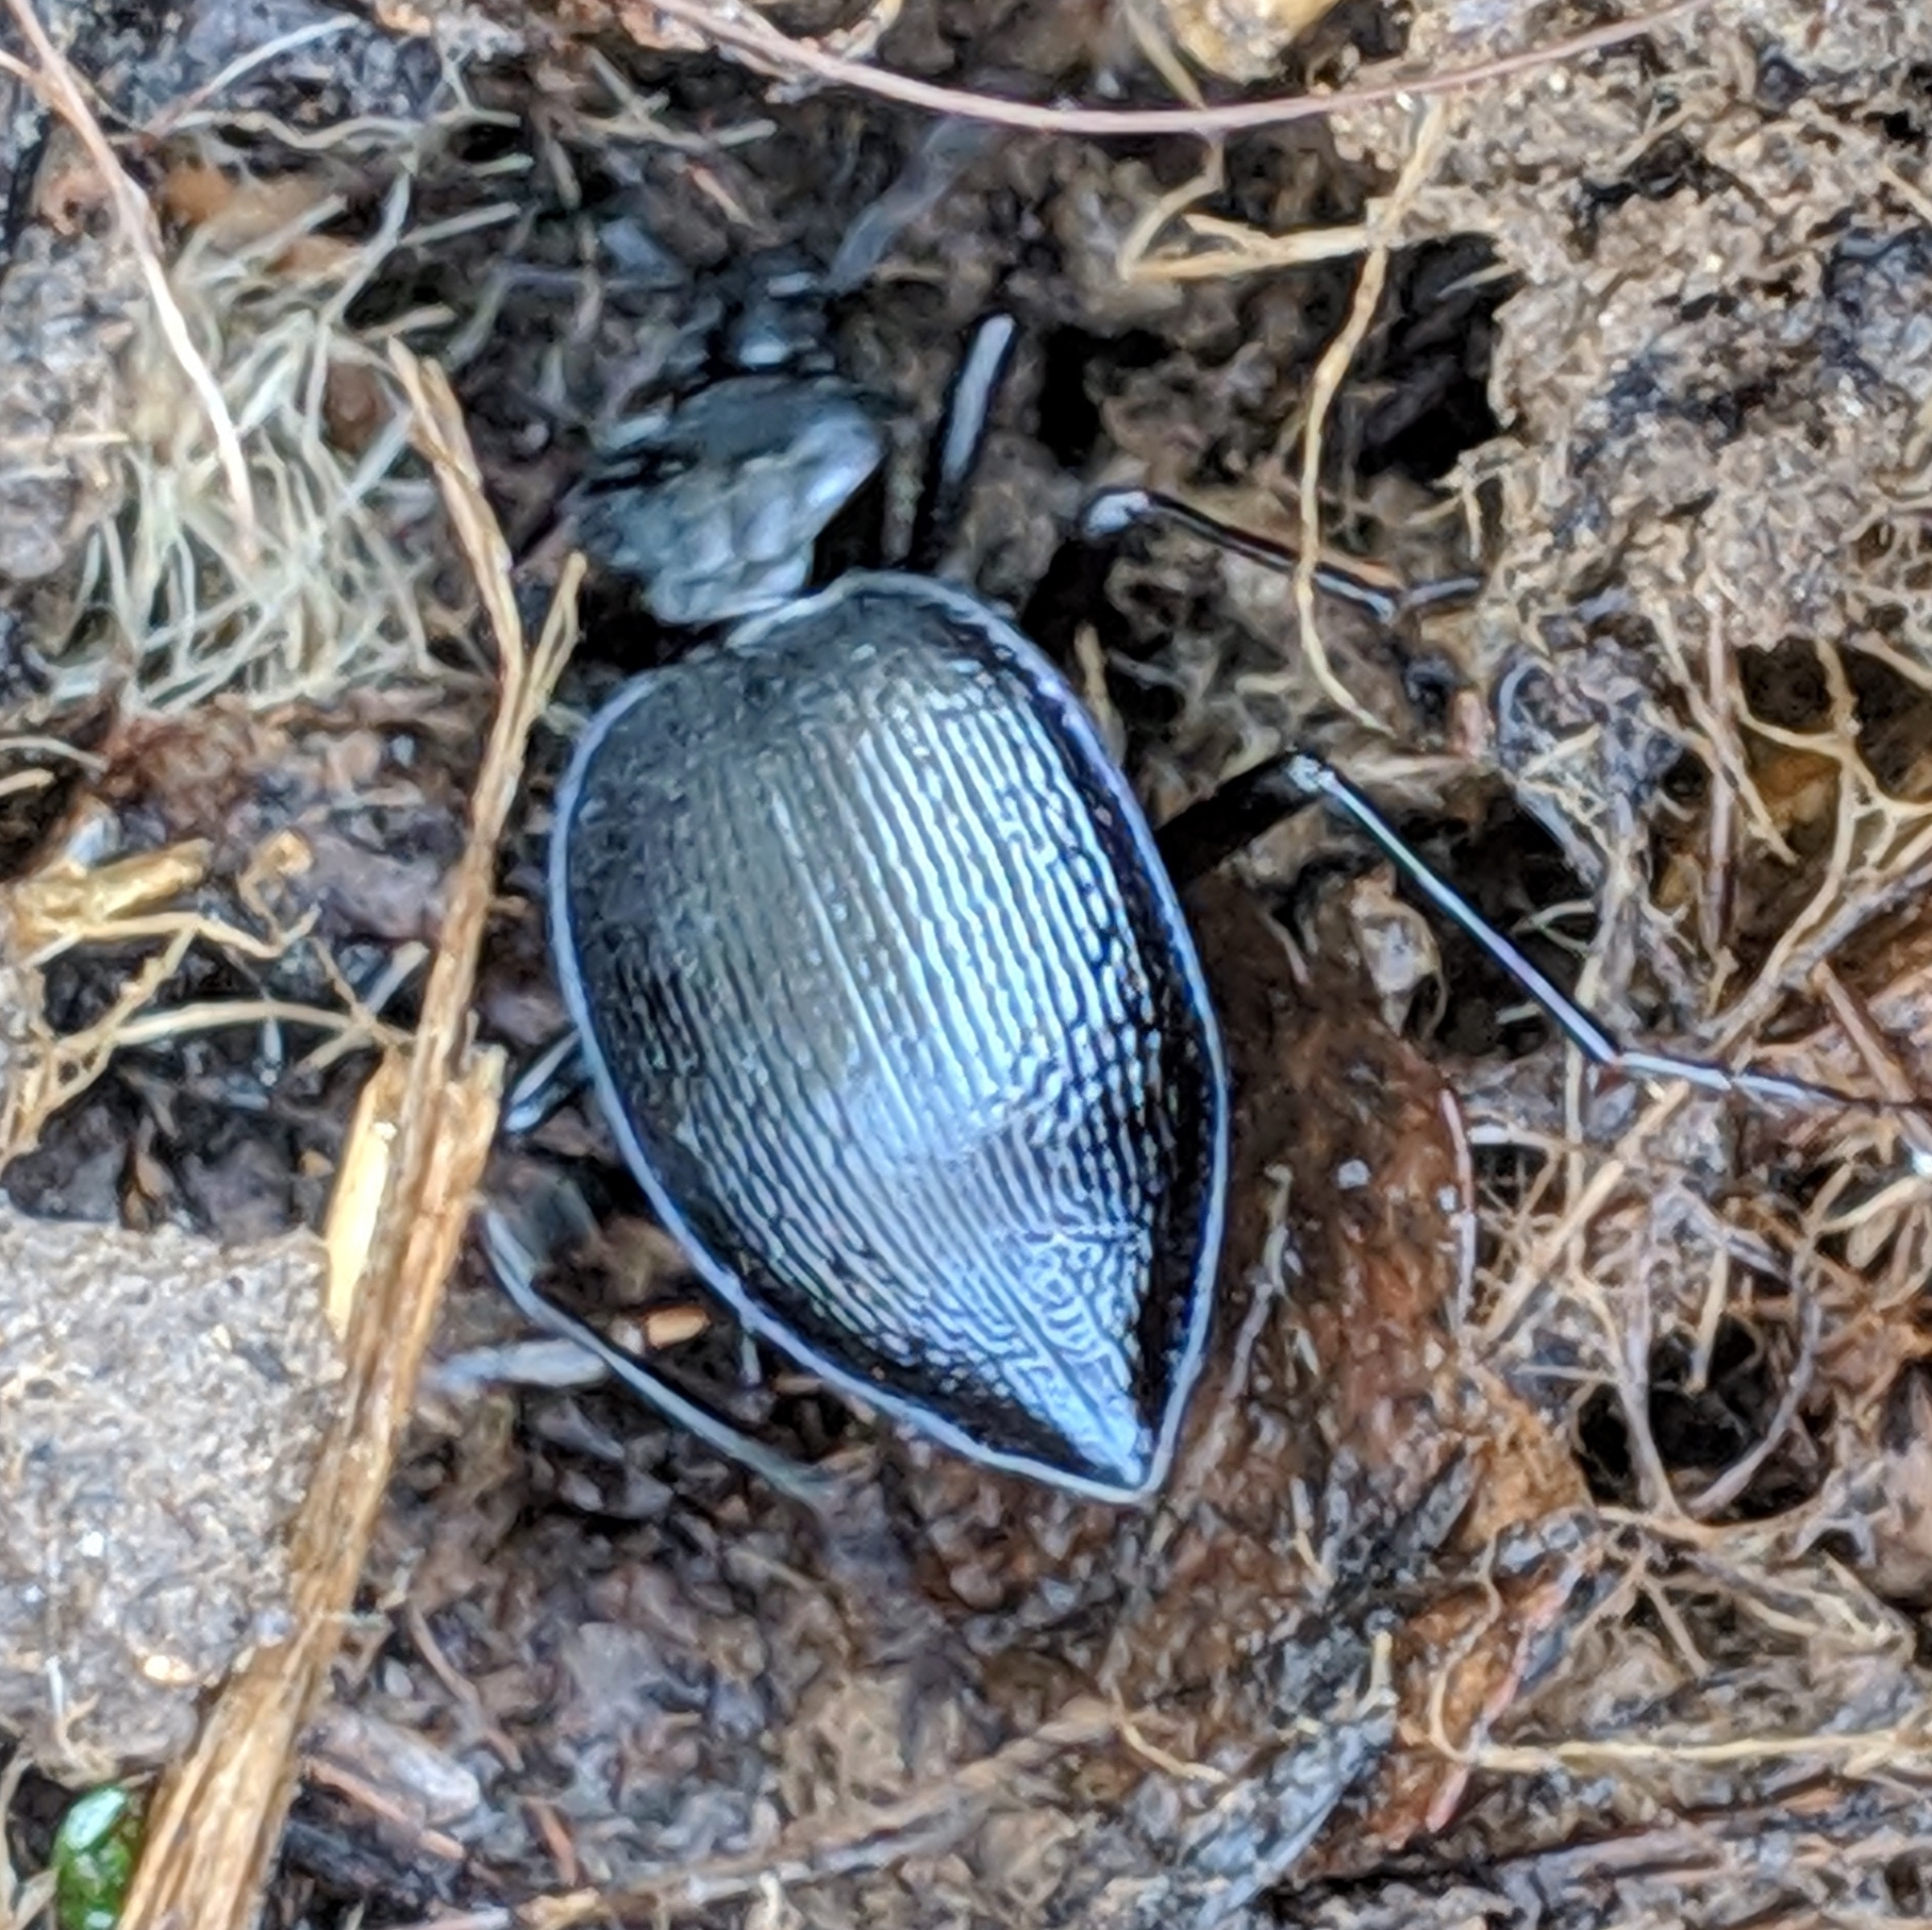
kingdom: Animalia
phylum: Arthropoda
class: Insecta
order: Coleoptera
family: Carabidae
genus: Scaphinotus
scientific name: Scaphinotus interruptus
